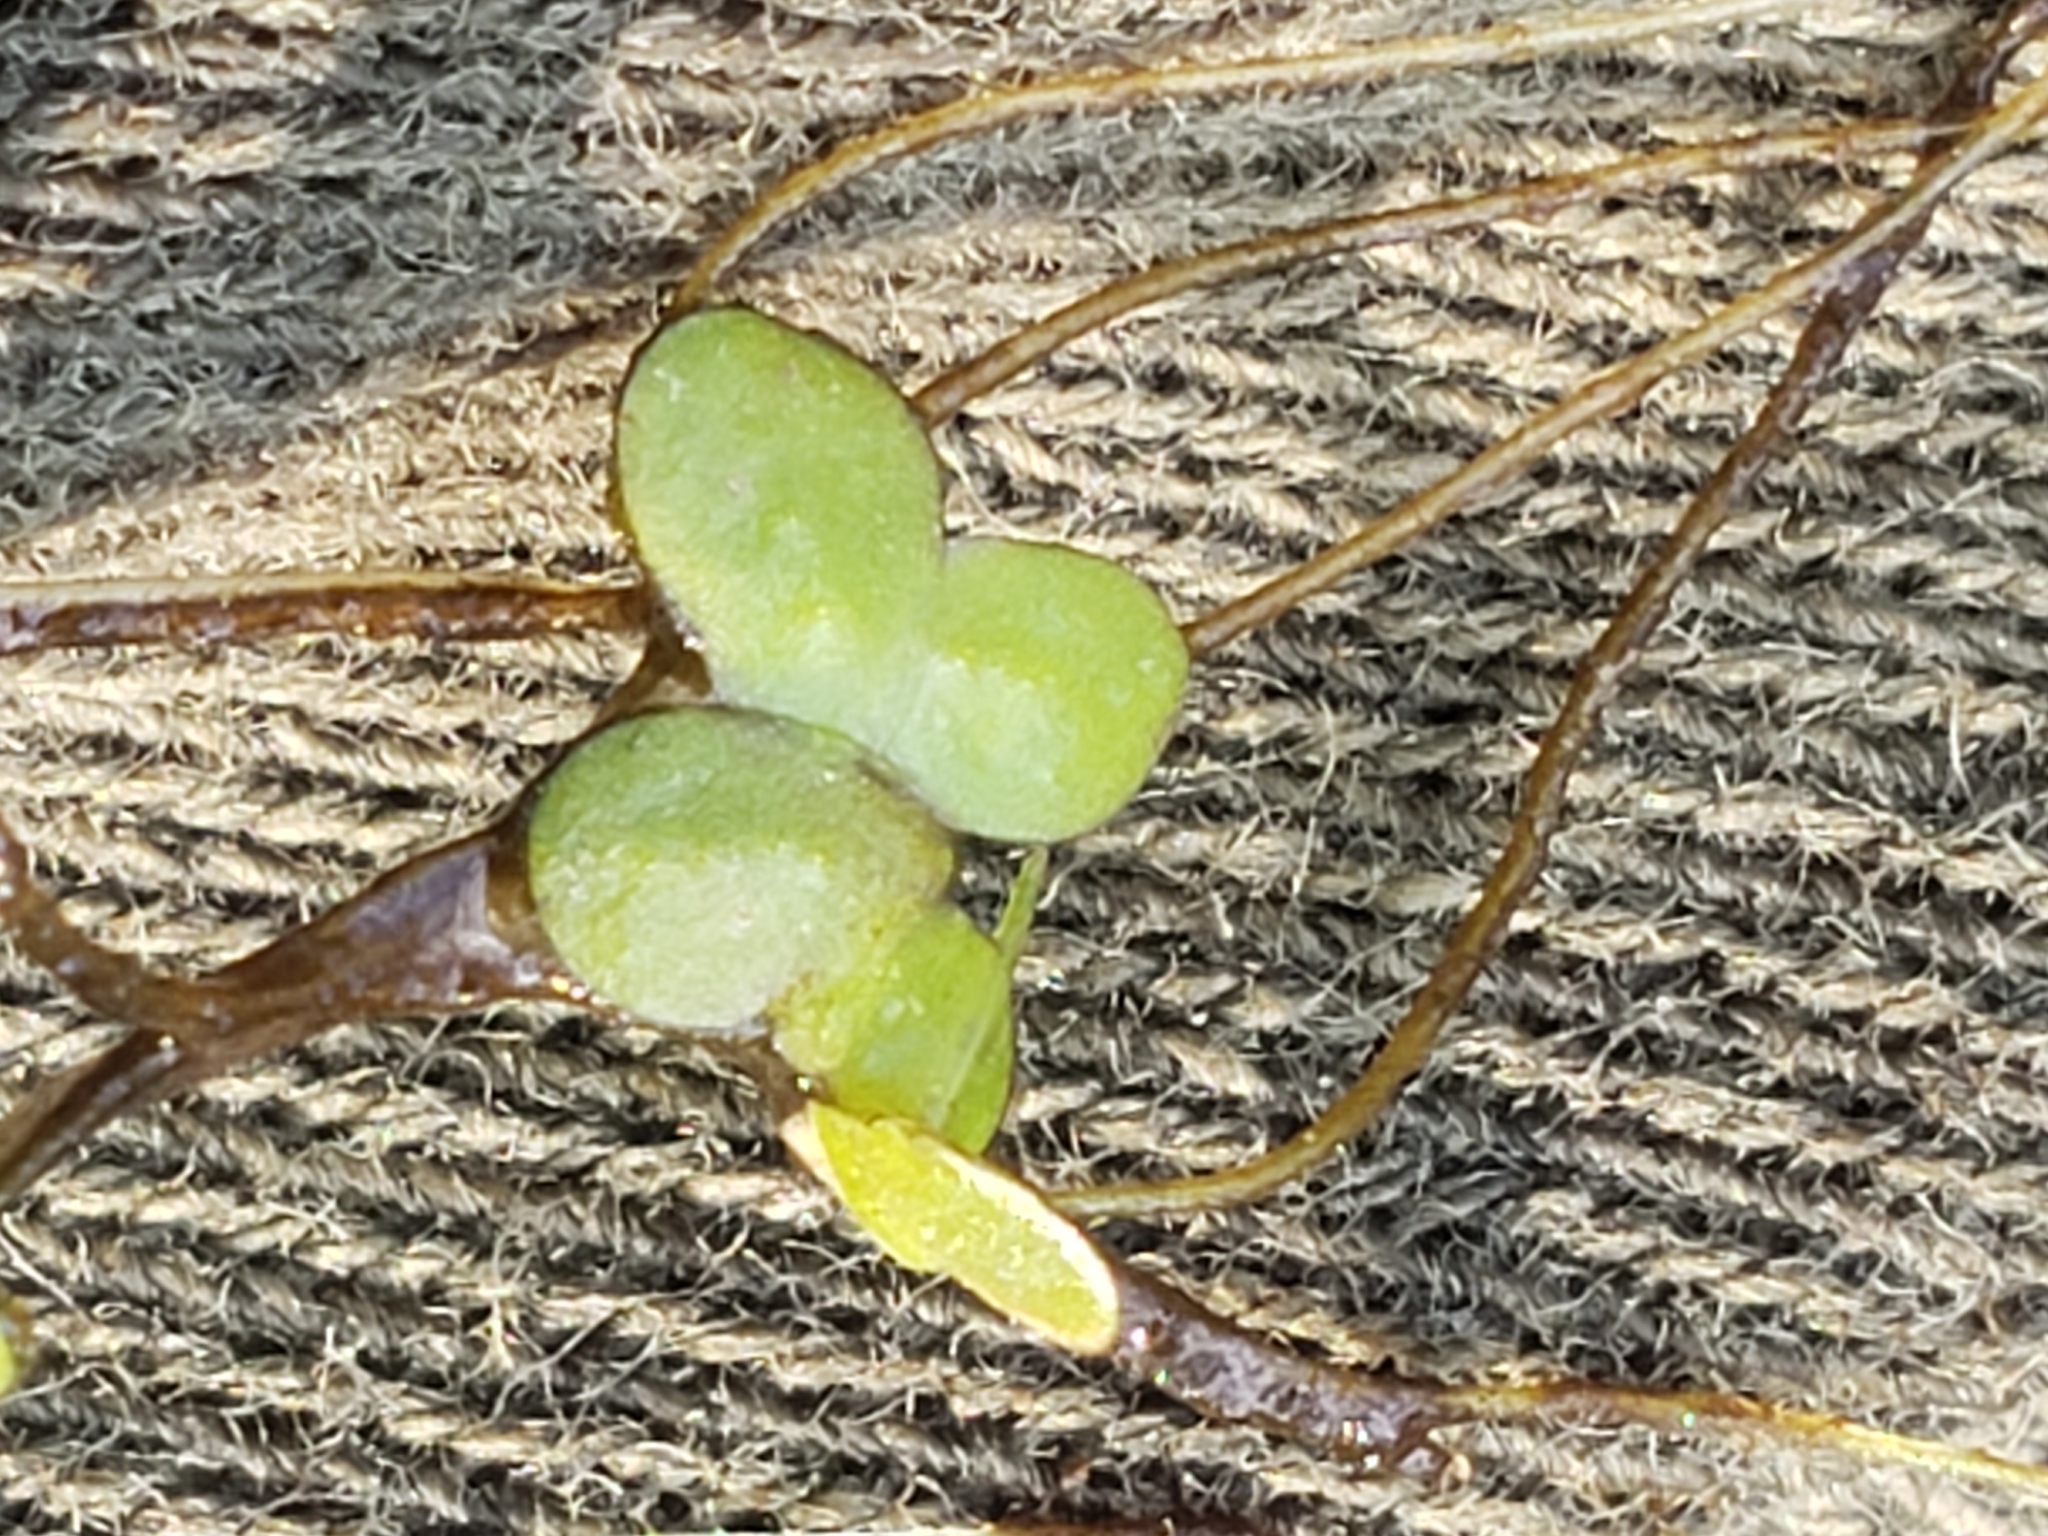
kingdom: Plantae
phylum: Tracheophyta
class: Liliopsida
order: Alismatales
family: Araceae
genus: Lemna
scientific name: Lemna minor
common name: Common duckweed
